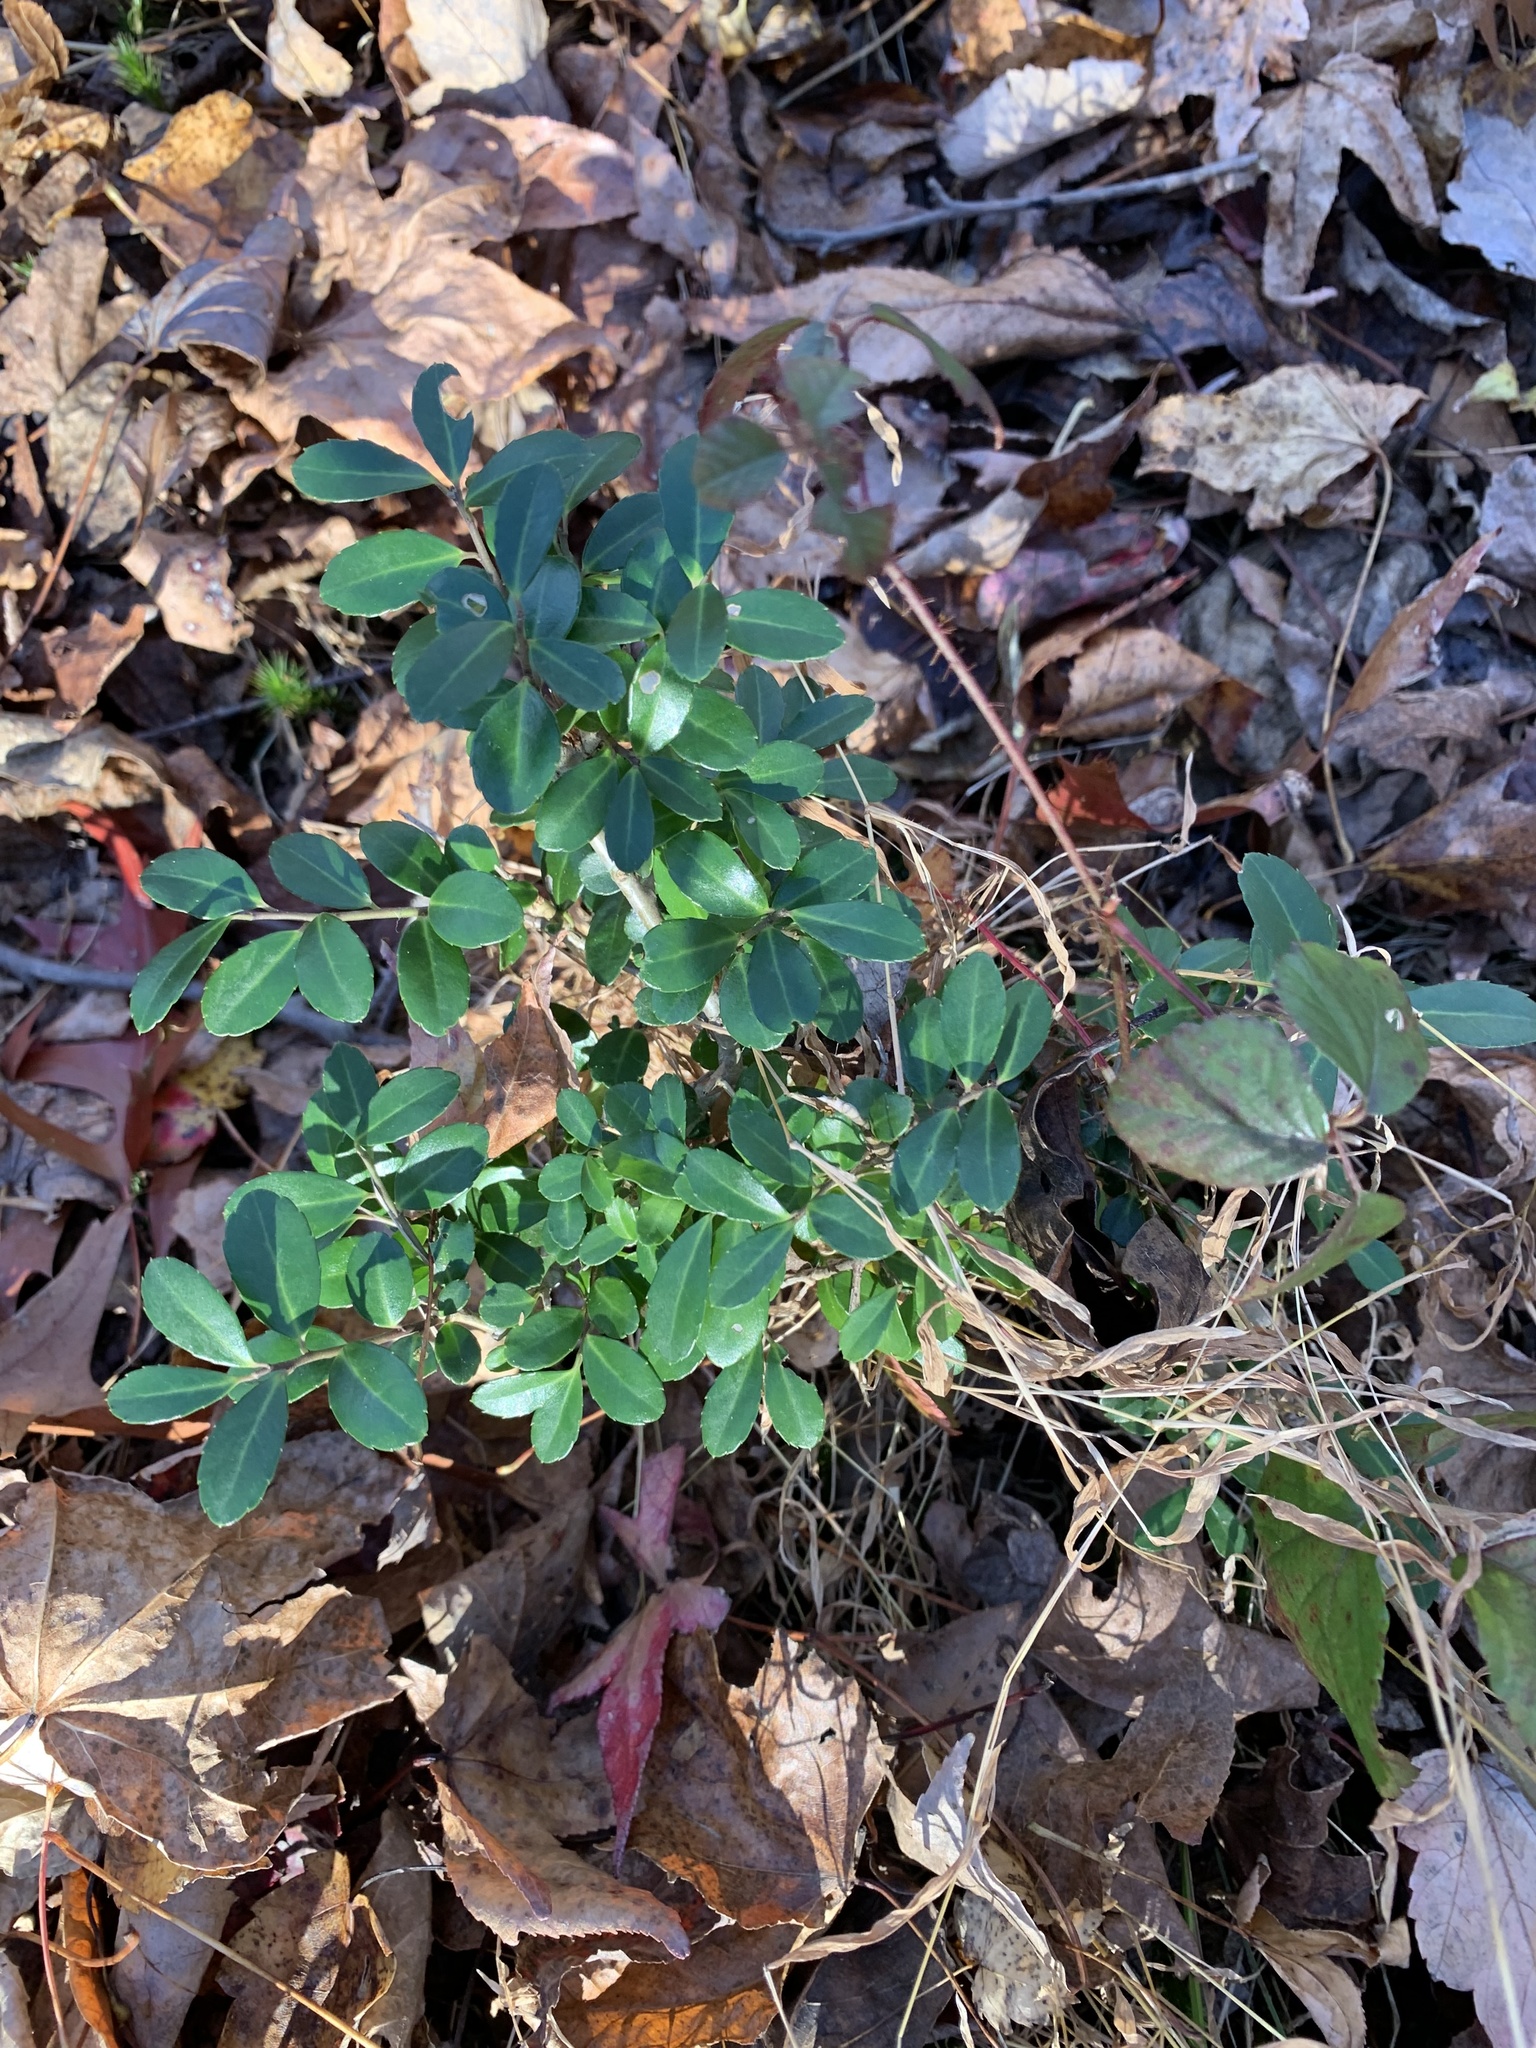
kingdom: Plantae
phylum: Tracheophyta
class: Magnoliopsida
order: Aquifoliales
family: Aquifoliaceae
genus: Ilex
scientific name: Ilex crenata
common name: Japanese holly
